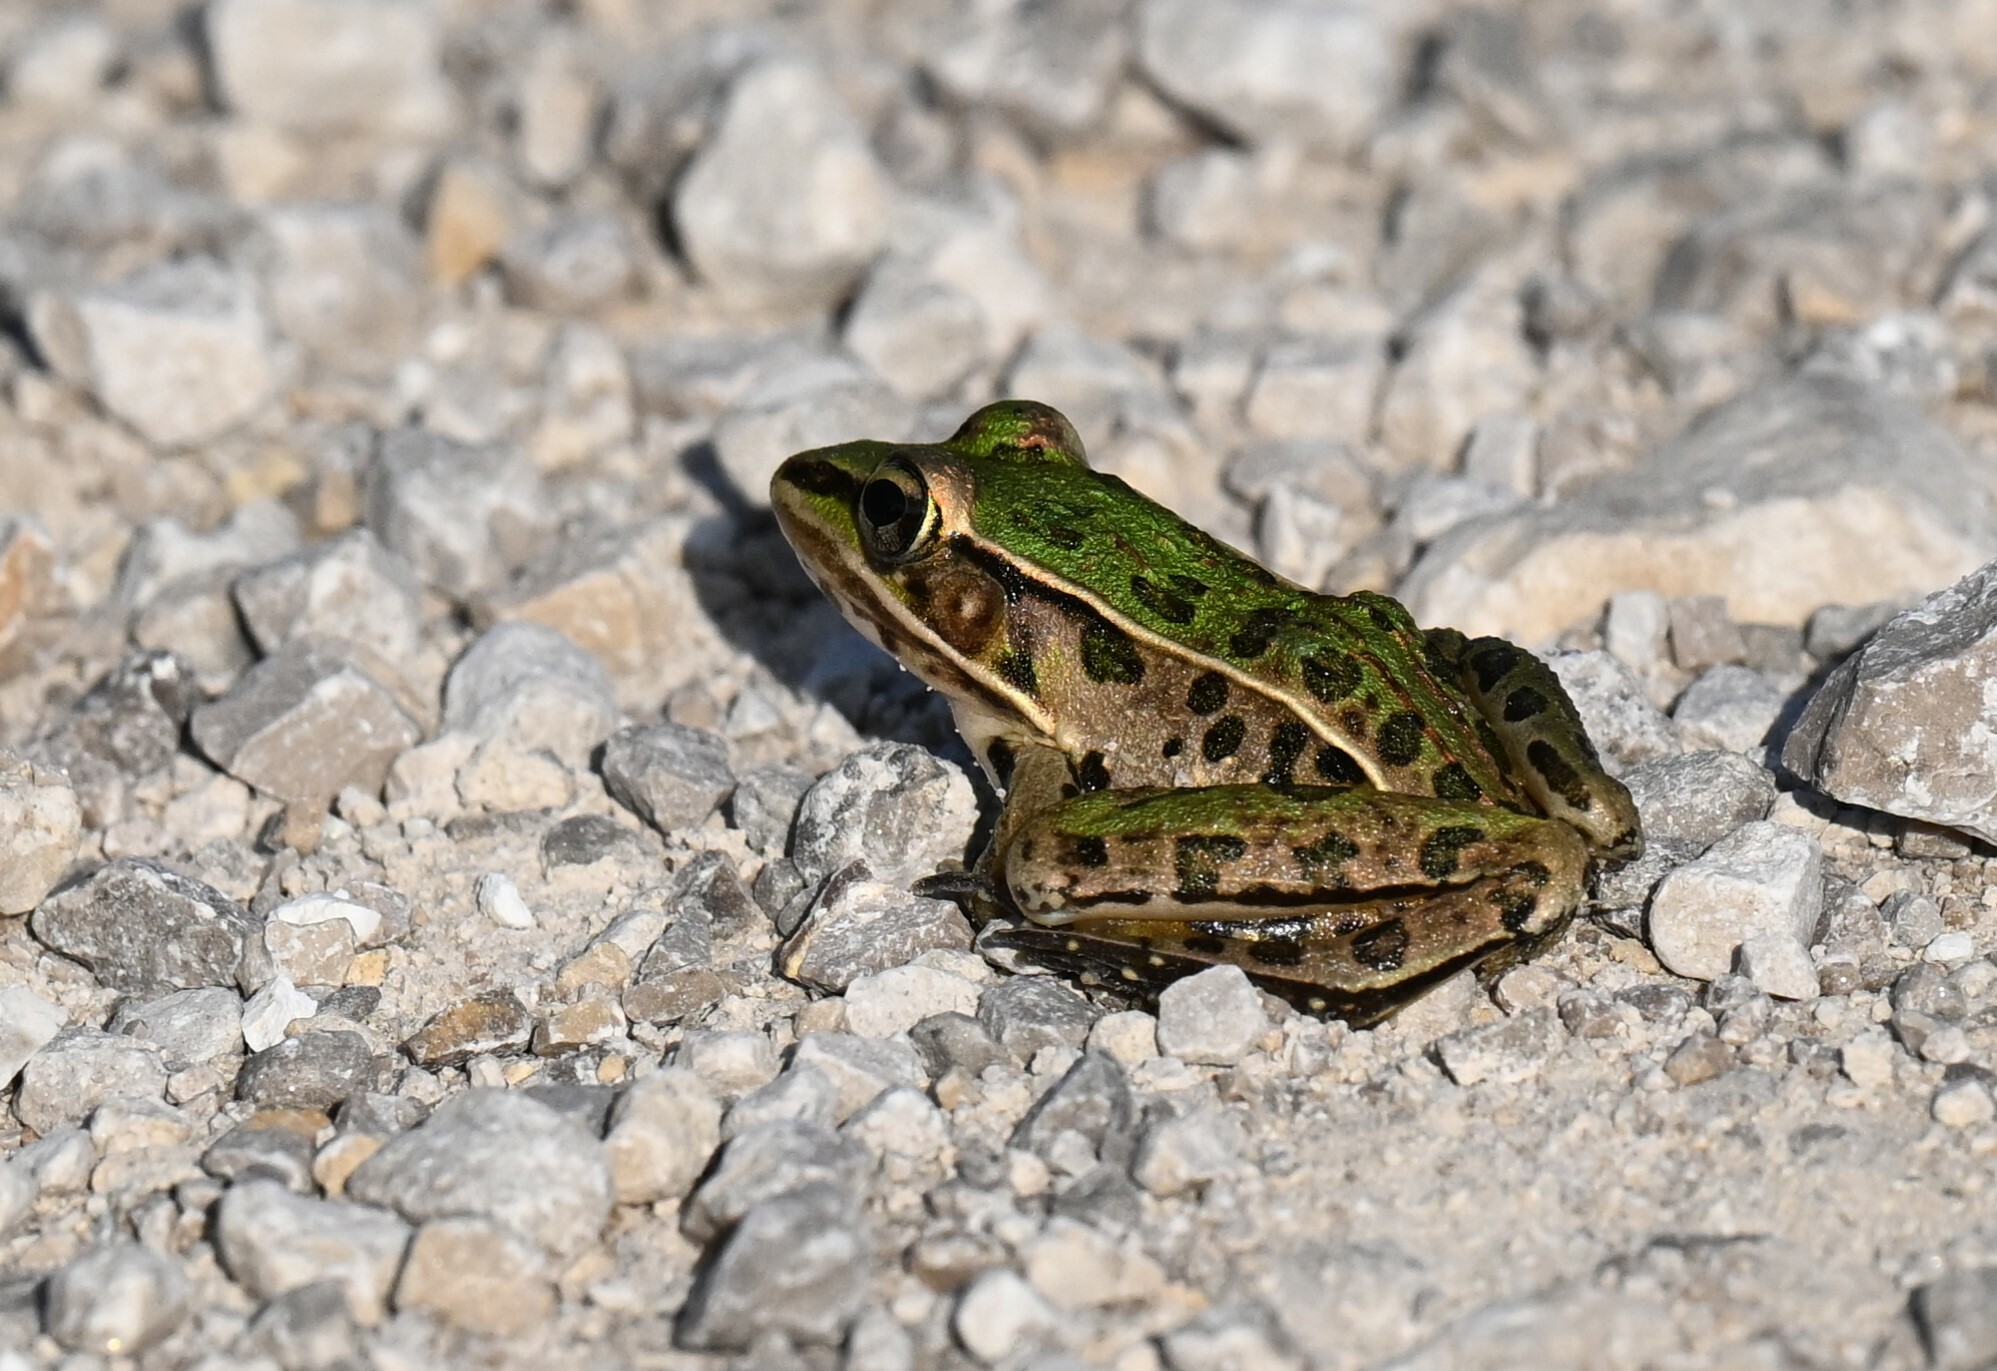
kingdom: Animalia
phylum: Chordata
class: Amphibia
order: Anura
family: Ranidae
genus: Lithobates
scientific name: Lithobates sphenocephalus
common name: Southern leopard frog
